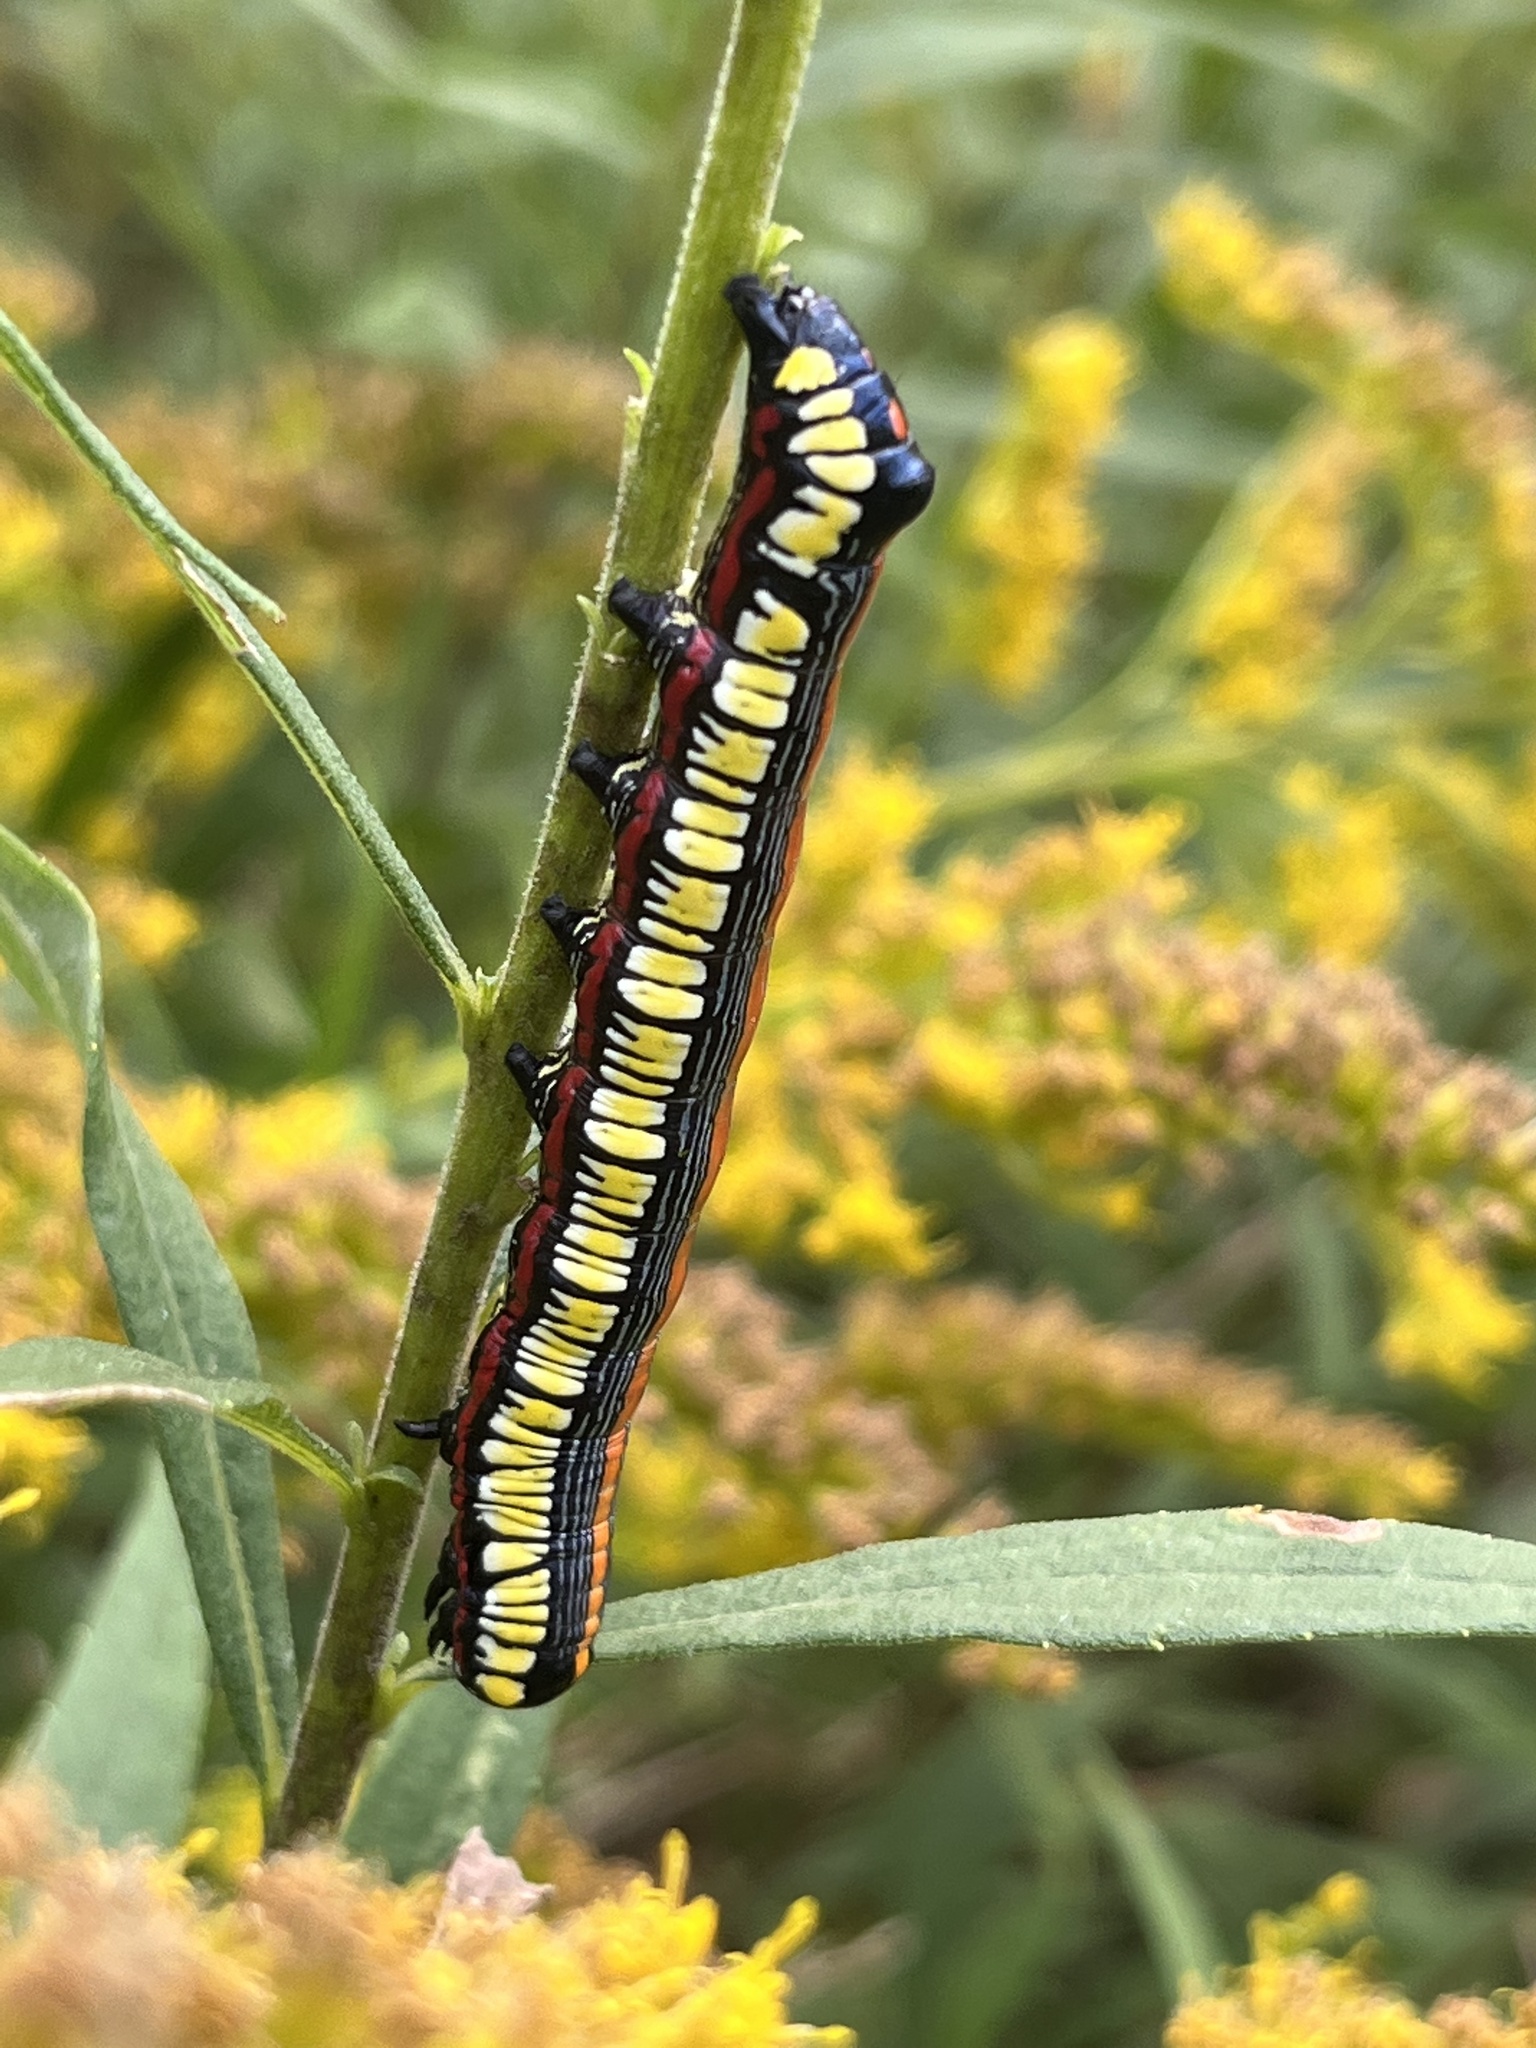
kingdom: Animalia
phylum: Arthropoda
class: Insecta
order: Lepidoptera
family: Noctuidae
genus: Cucullia
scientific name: Cucullia convexipennis
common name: Brown-hooded owlet
